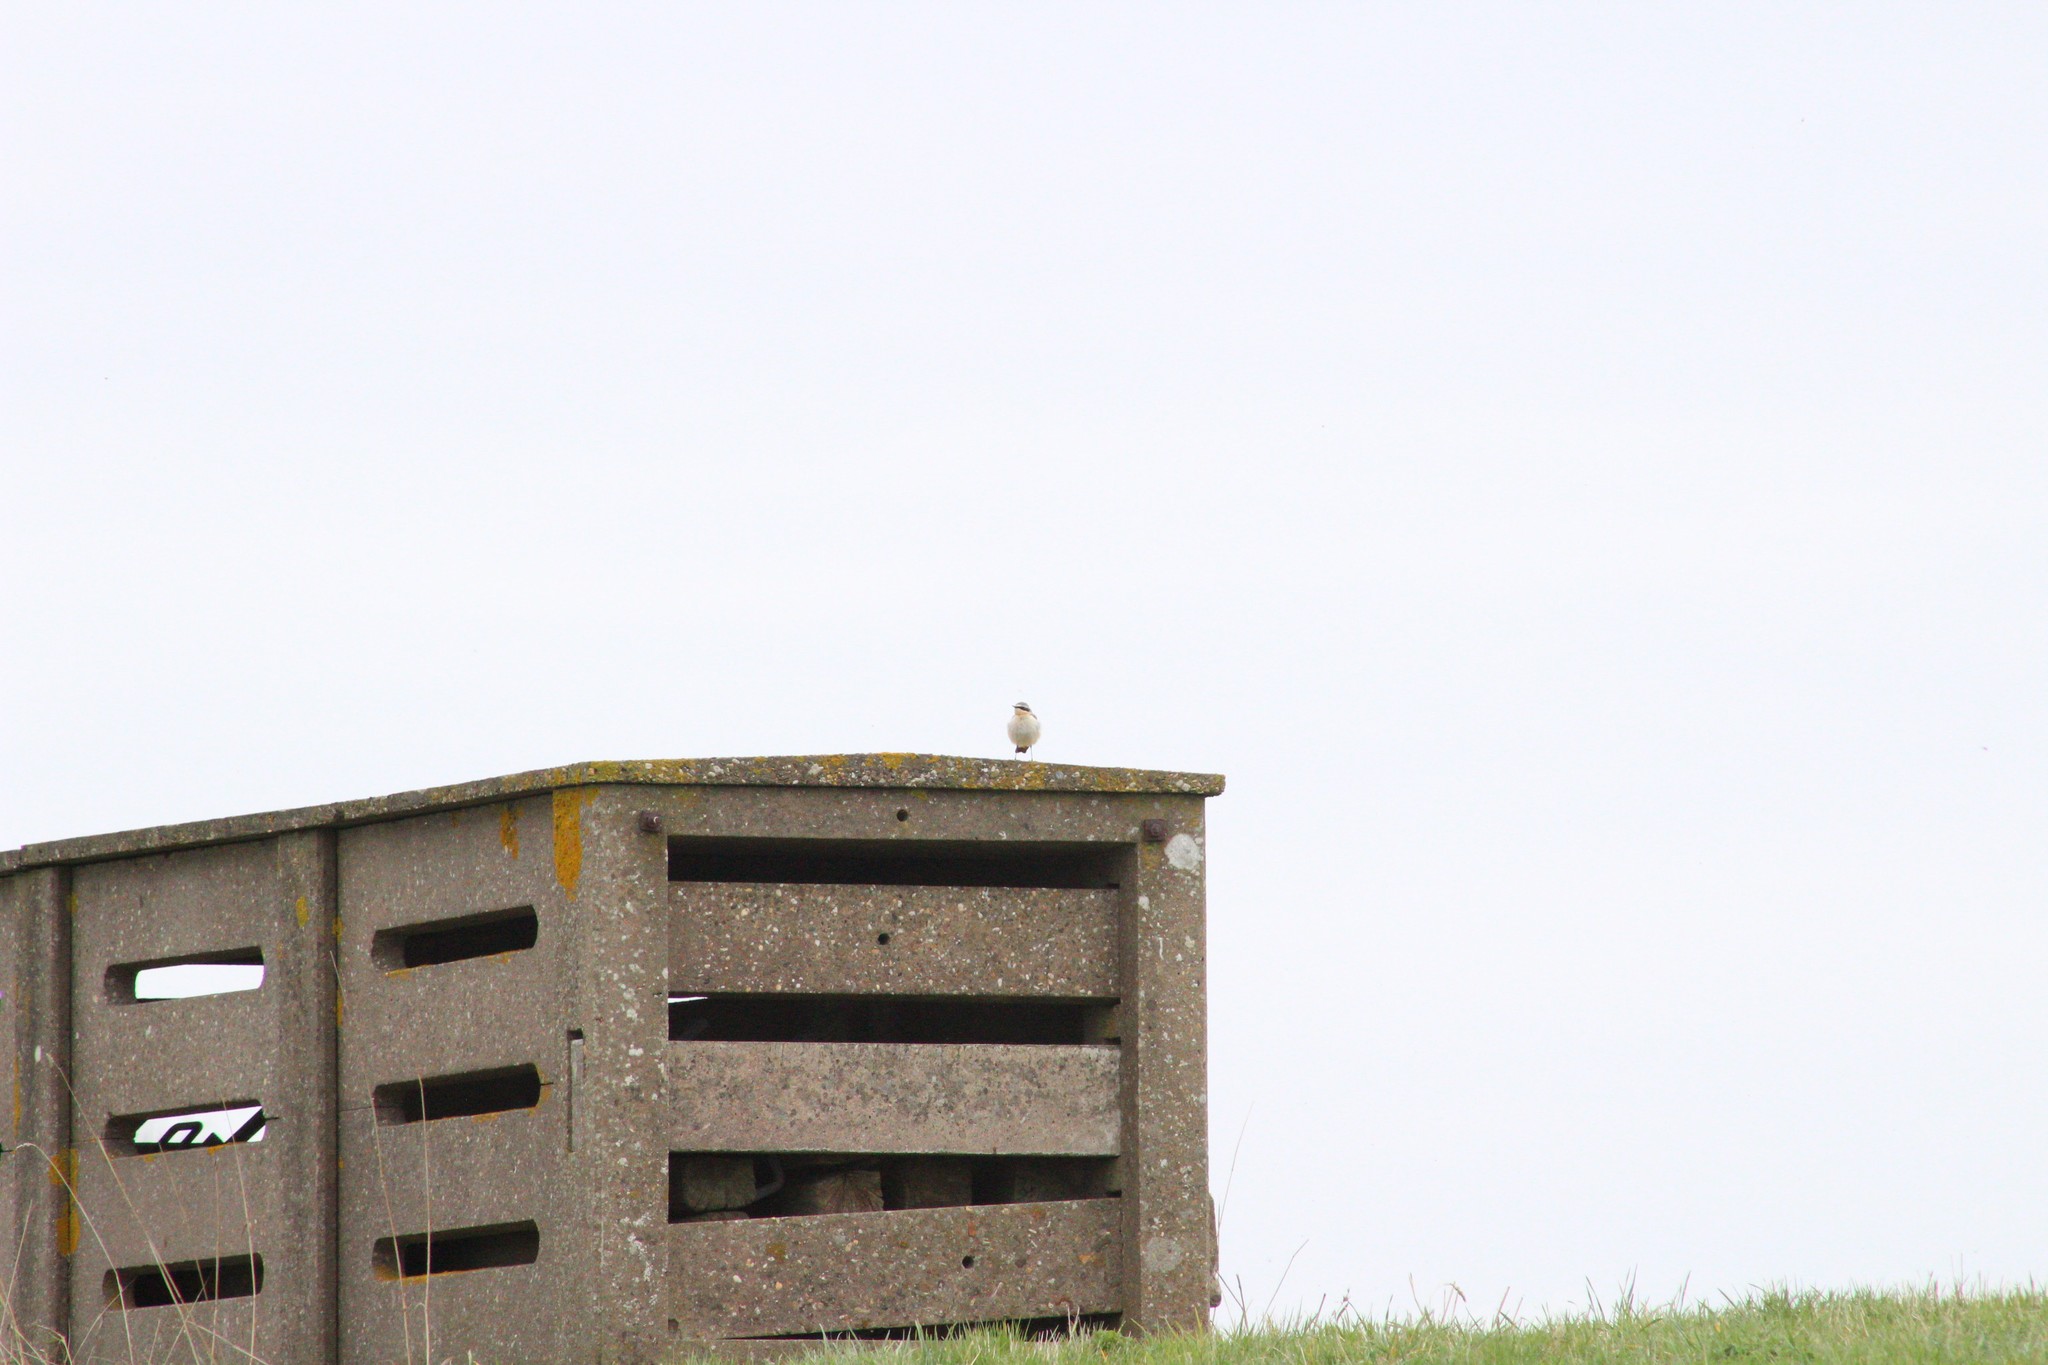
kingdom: Animalia
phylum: Chordata
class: Aves
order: Passeriformes
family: Muscicapidae
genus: Oenanthe
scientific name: Oenanthe oenanthe
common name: Northern wheatear
